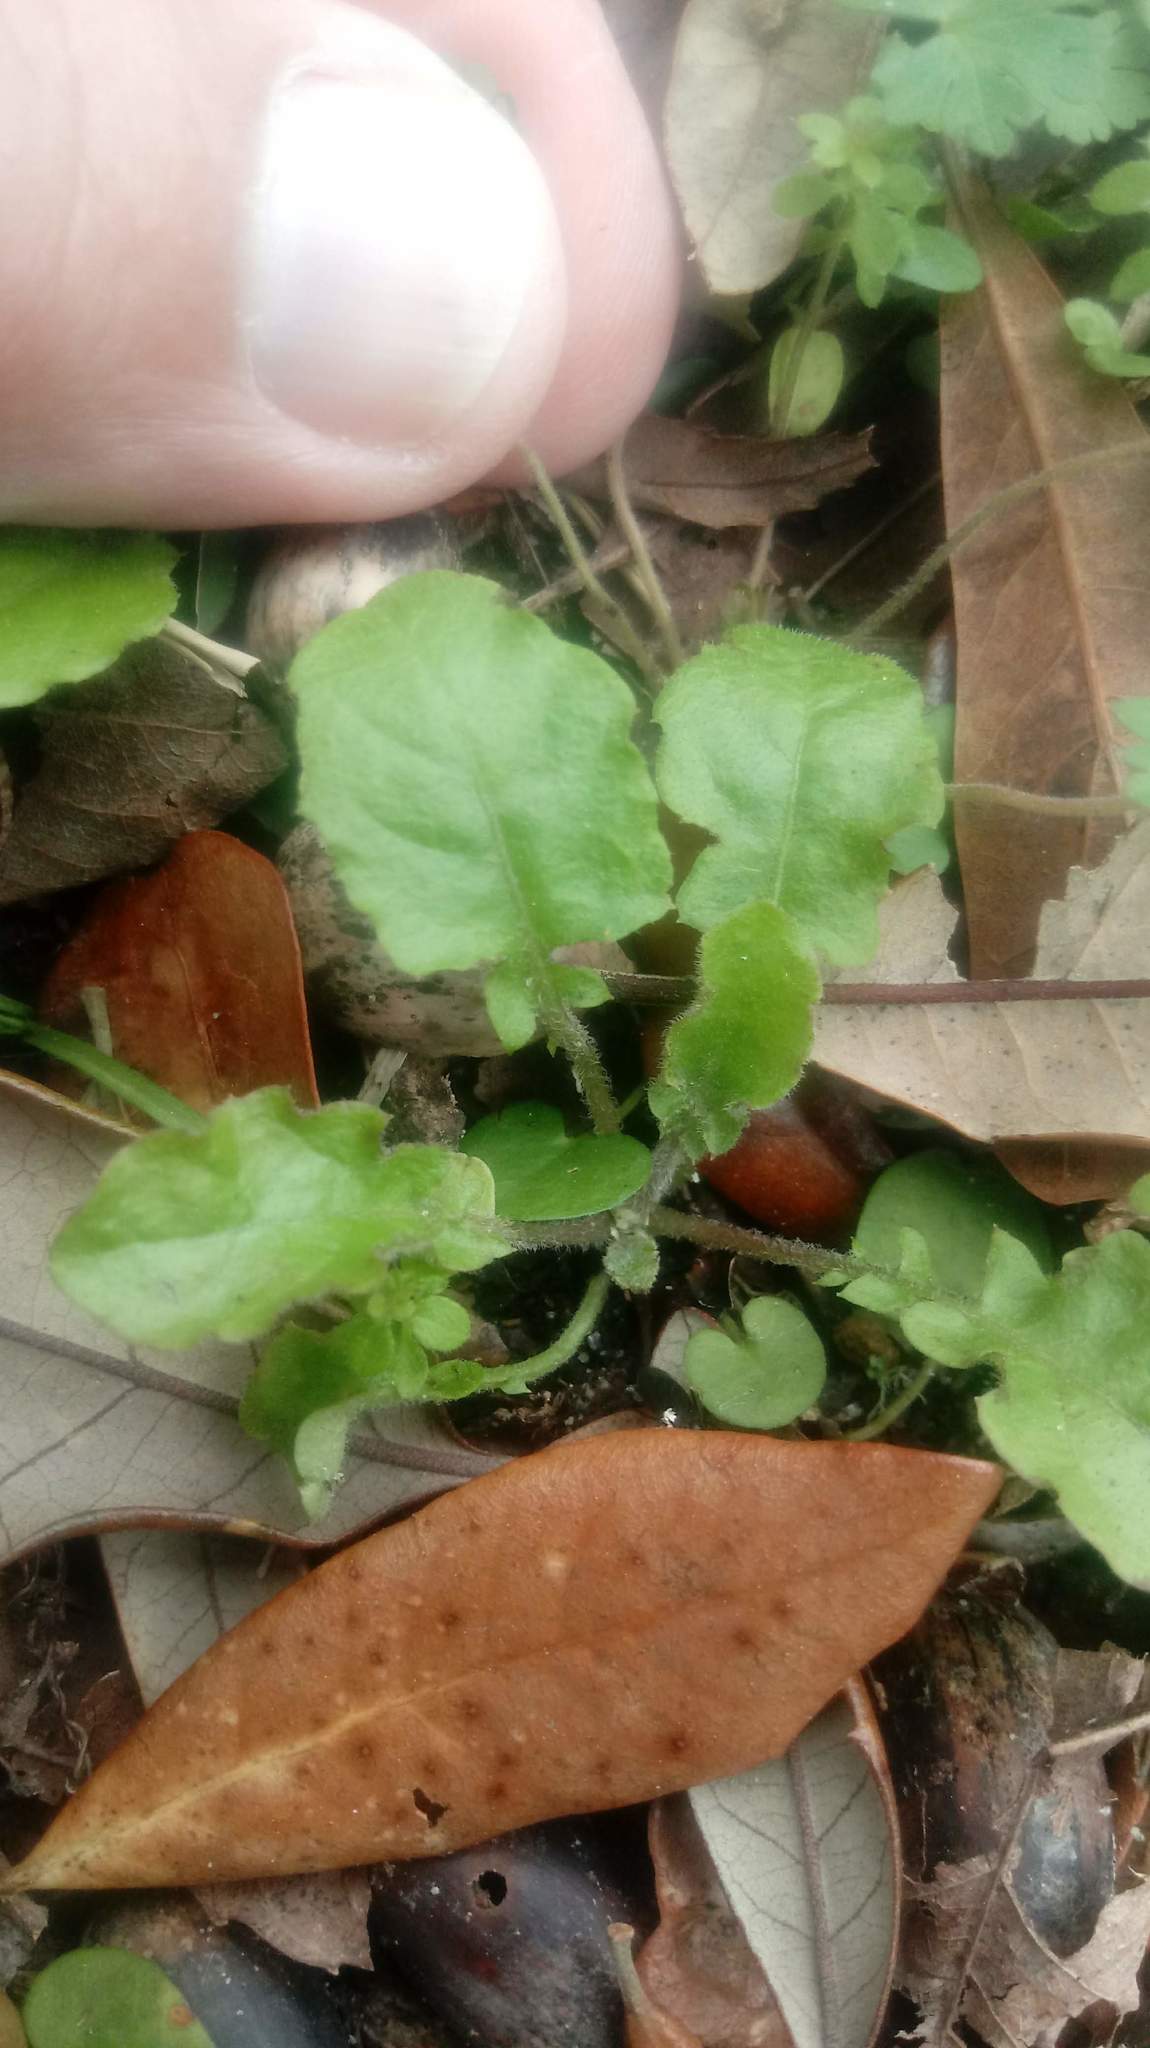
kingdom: Plantae
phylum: Tracheophyta
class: Magnoliopsida
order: Asterales
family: Asteraceae
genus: Youngia
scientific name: Youngia japonica
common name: Oriental false hawksbeard
